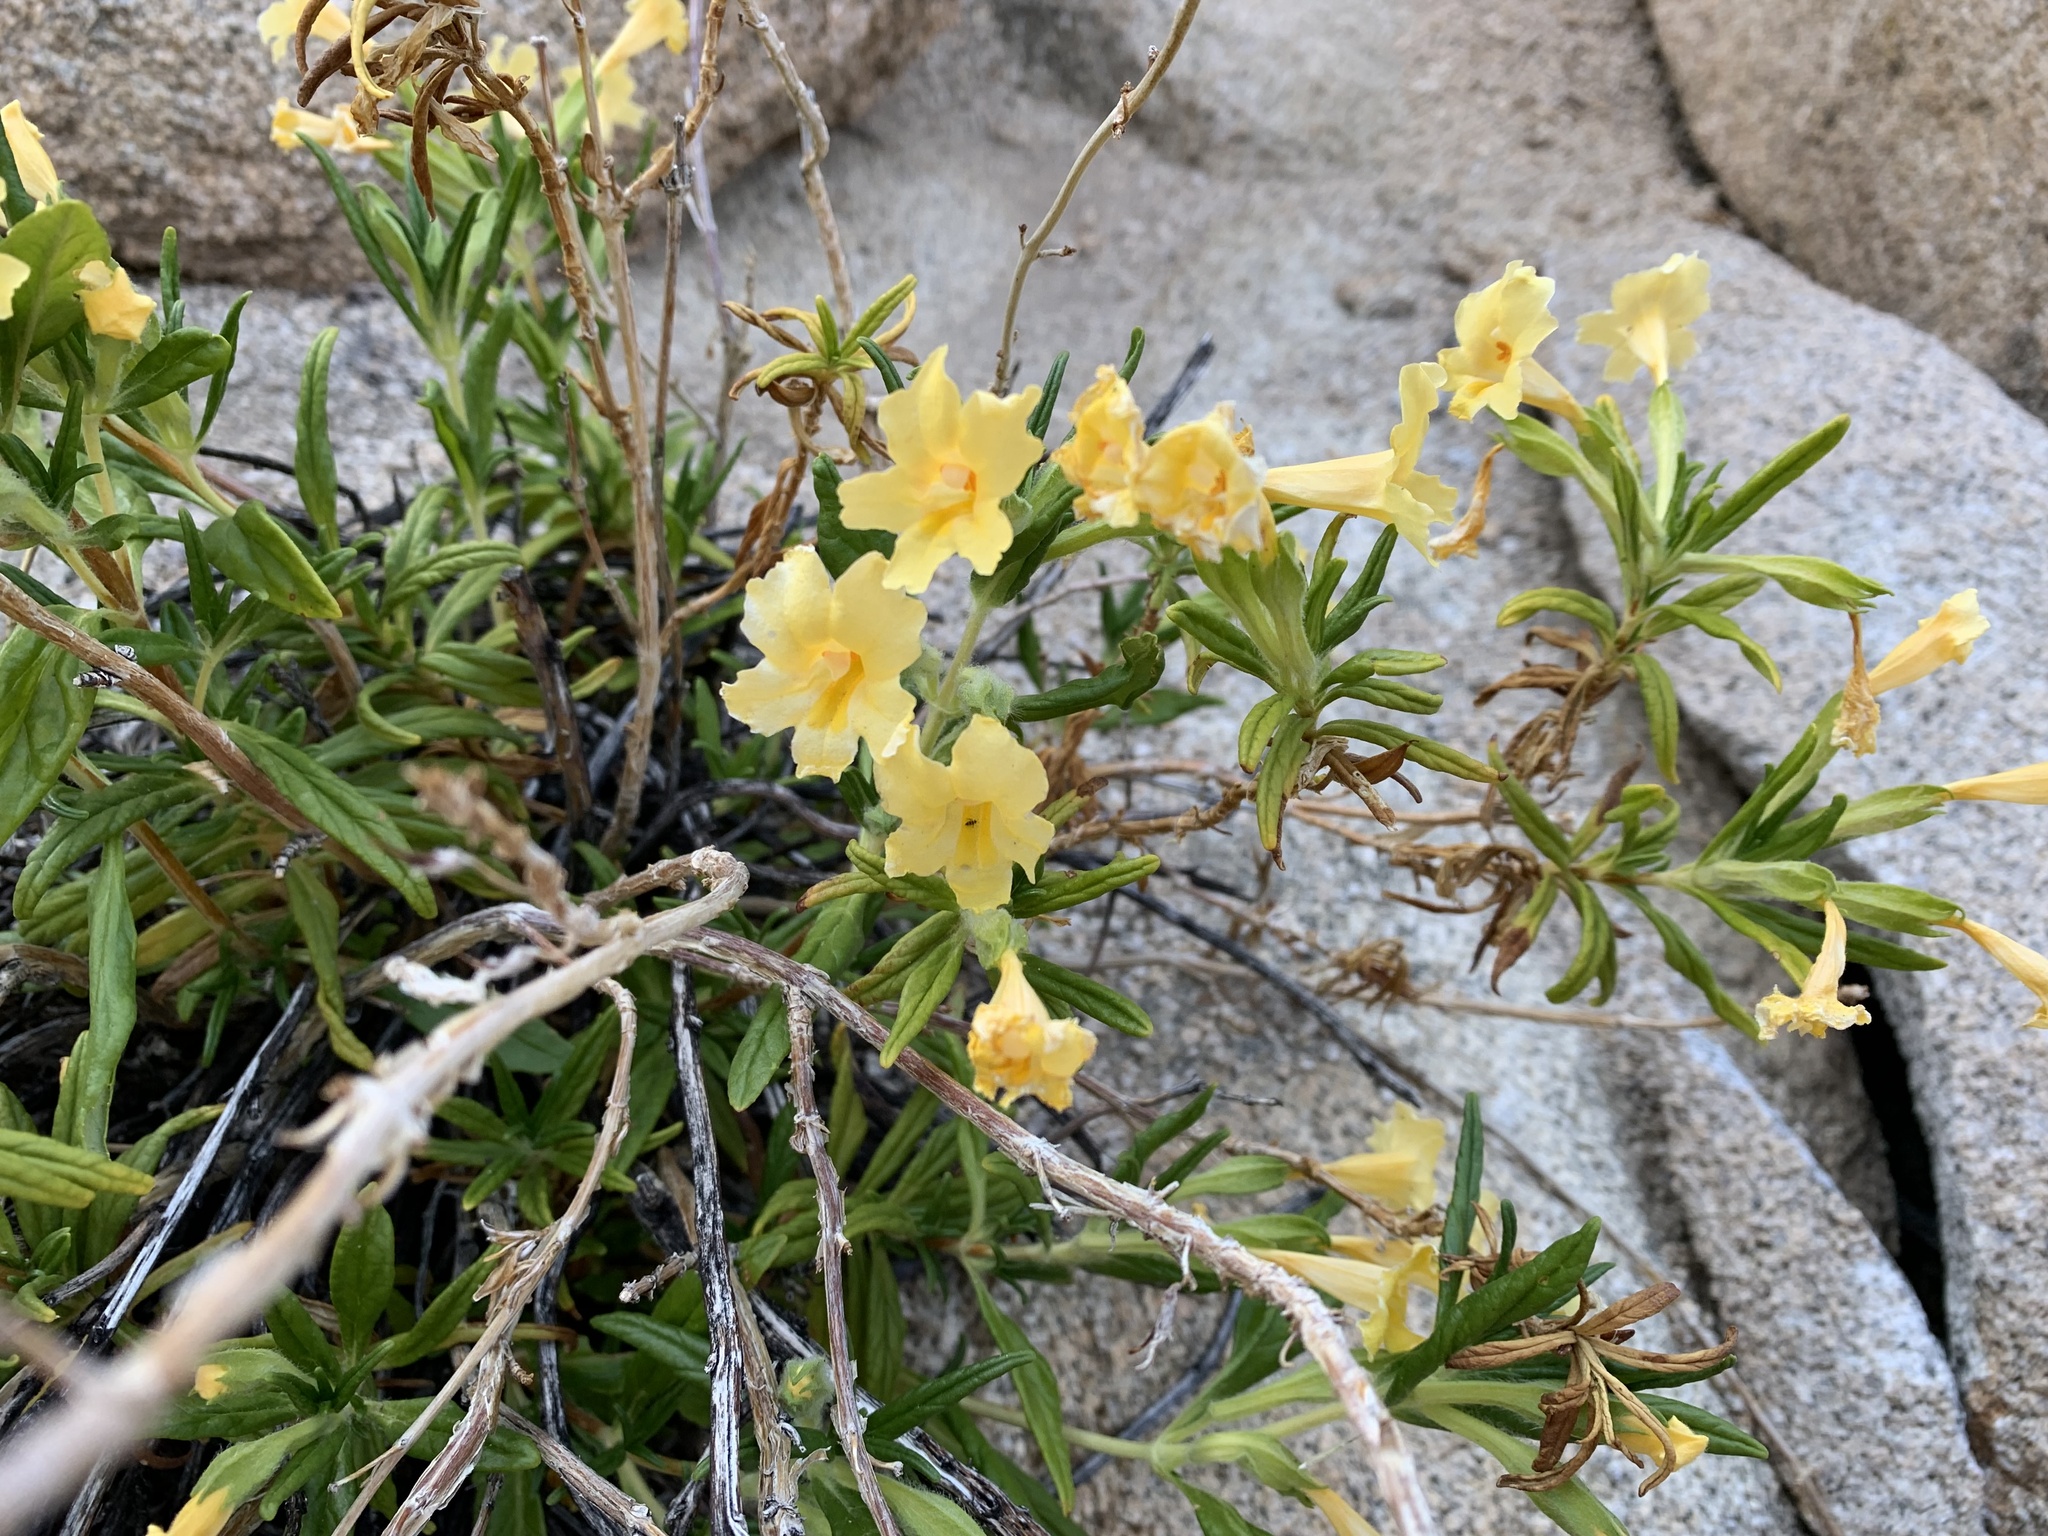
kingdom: Plantae
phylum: Tracheophyta
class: Magnoliopsida
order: Lamiales
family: Phrymaceae
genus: Diplacus
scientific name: Diplacus calycinus
